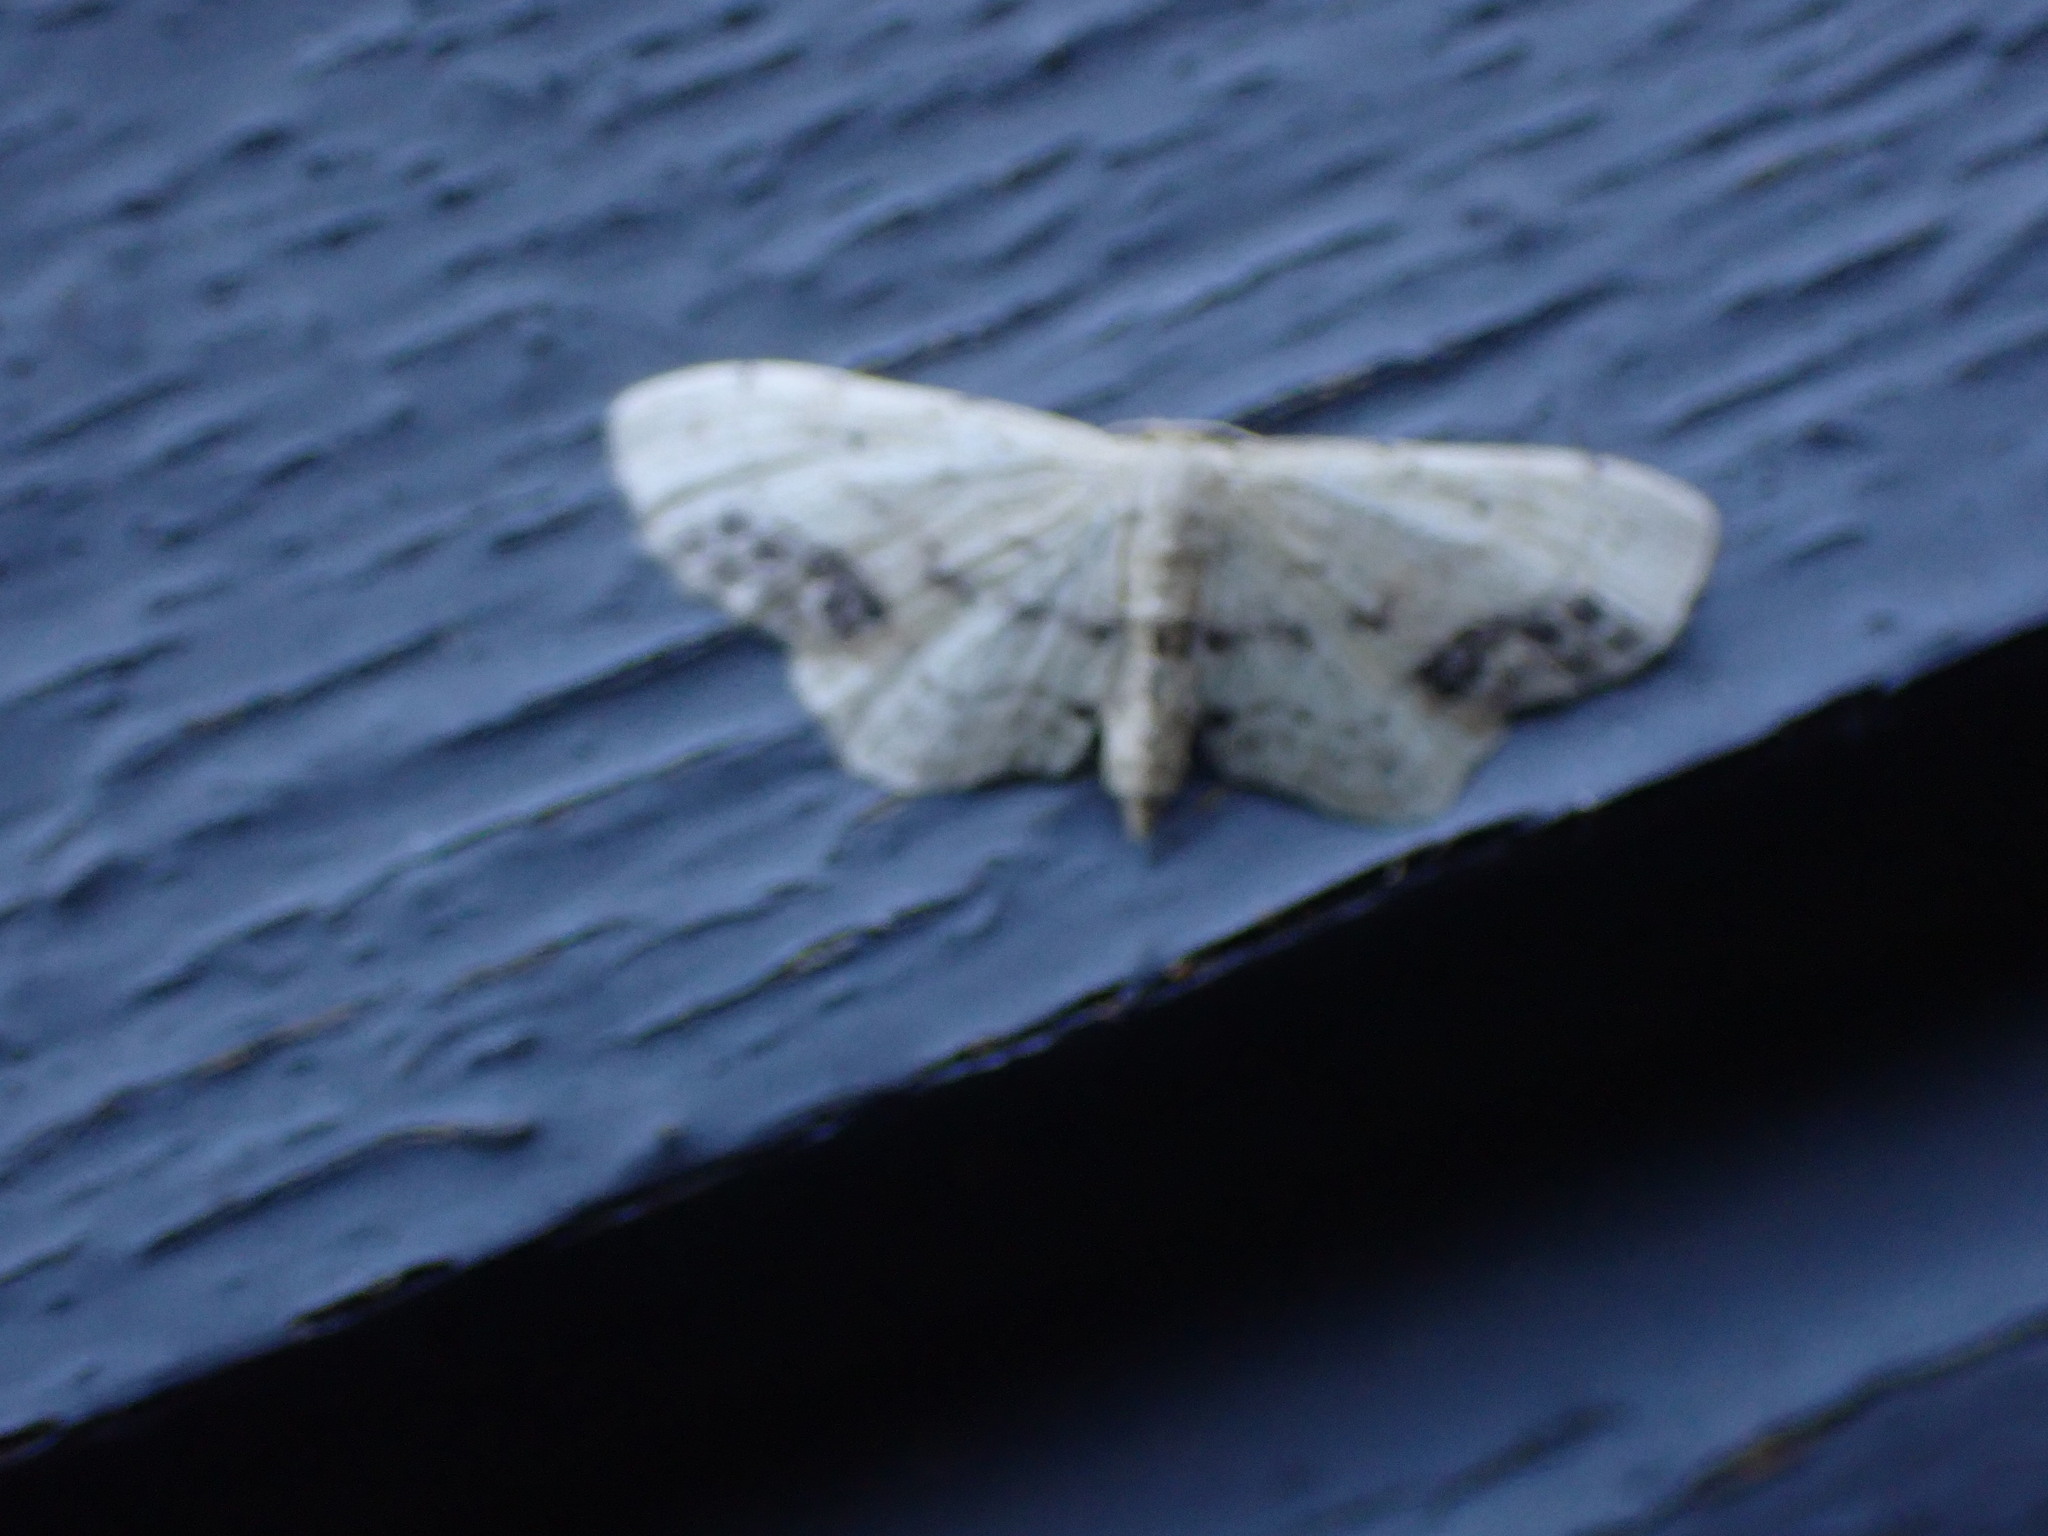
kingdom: Animalia
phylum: Arthropoda
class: Insecta
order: Lepidoptera
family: Geometridae
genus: Idaea
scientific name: Idaea dimidiata
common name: Single-dotted wave
